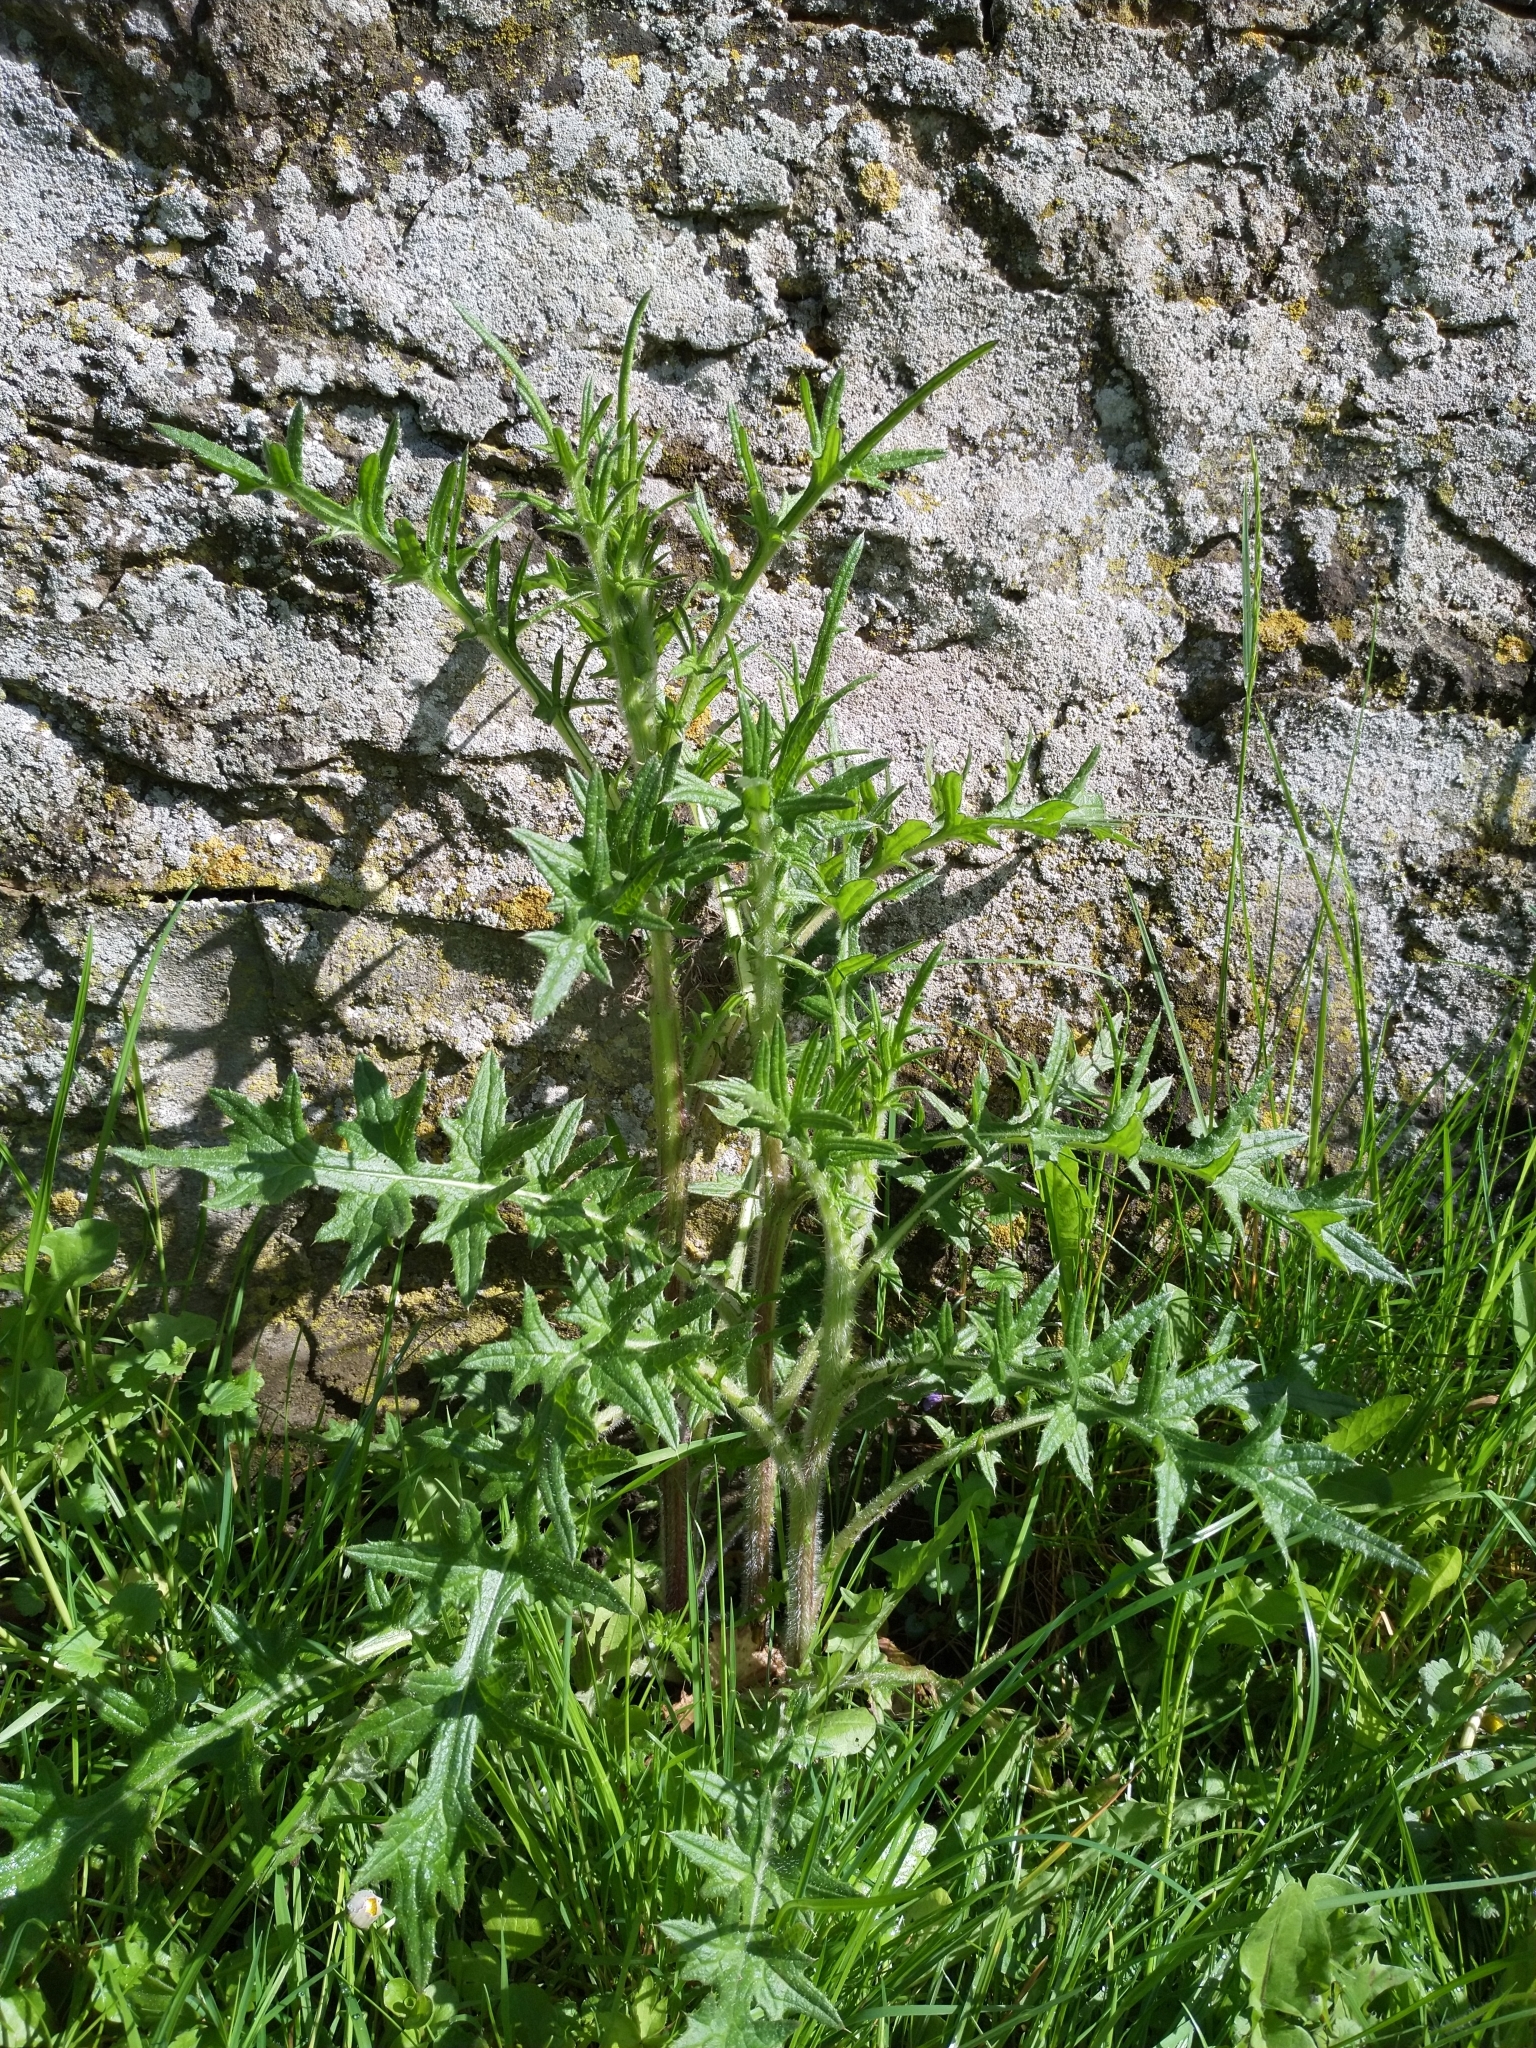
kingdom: Plantae
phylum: Tracheophyta
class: Magnoliopsida
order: Asterales
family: Asteraceae
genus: Cirsium
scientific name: Cirsium vulgare
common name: Bull thistle
